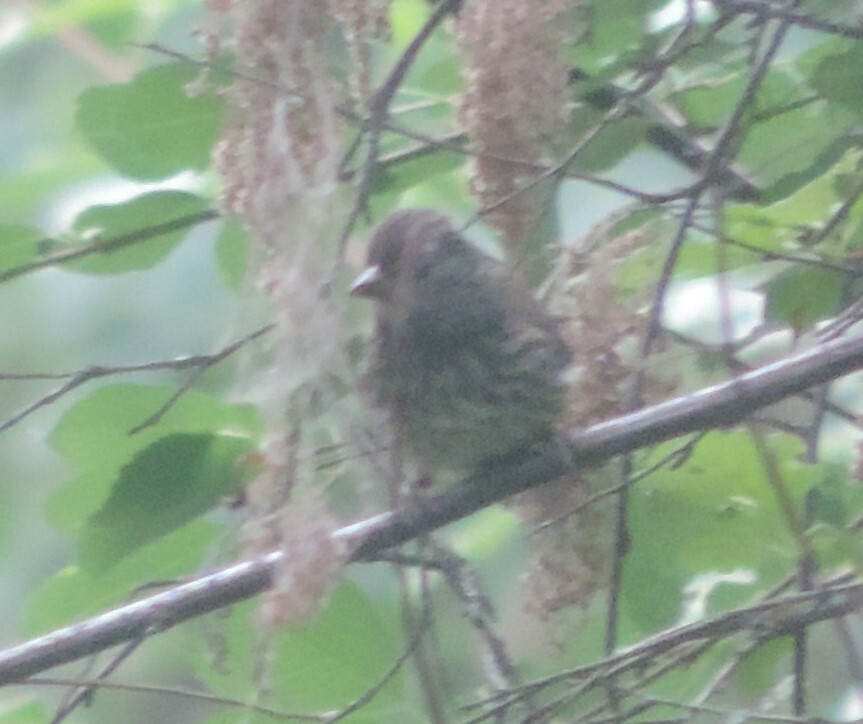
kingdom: Animalia
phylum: Chordata
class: Aves
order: Passeriformes
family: Passerellidae
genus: Junco
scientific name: Junco hyemalis
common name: Dark-eyed junco
